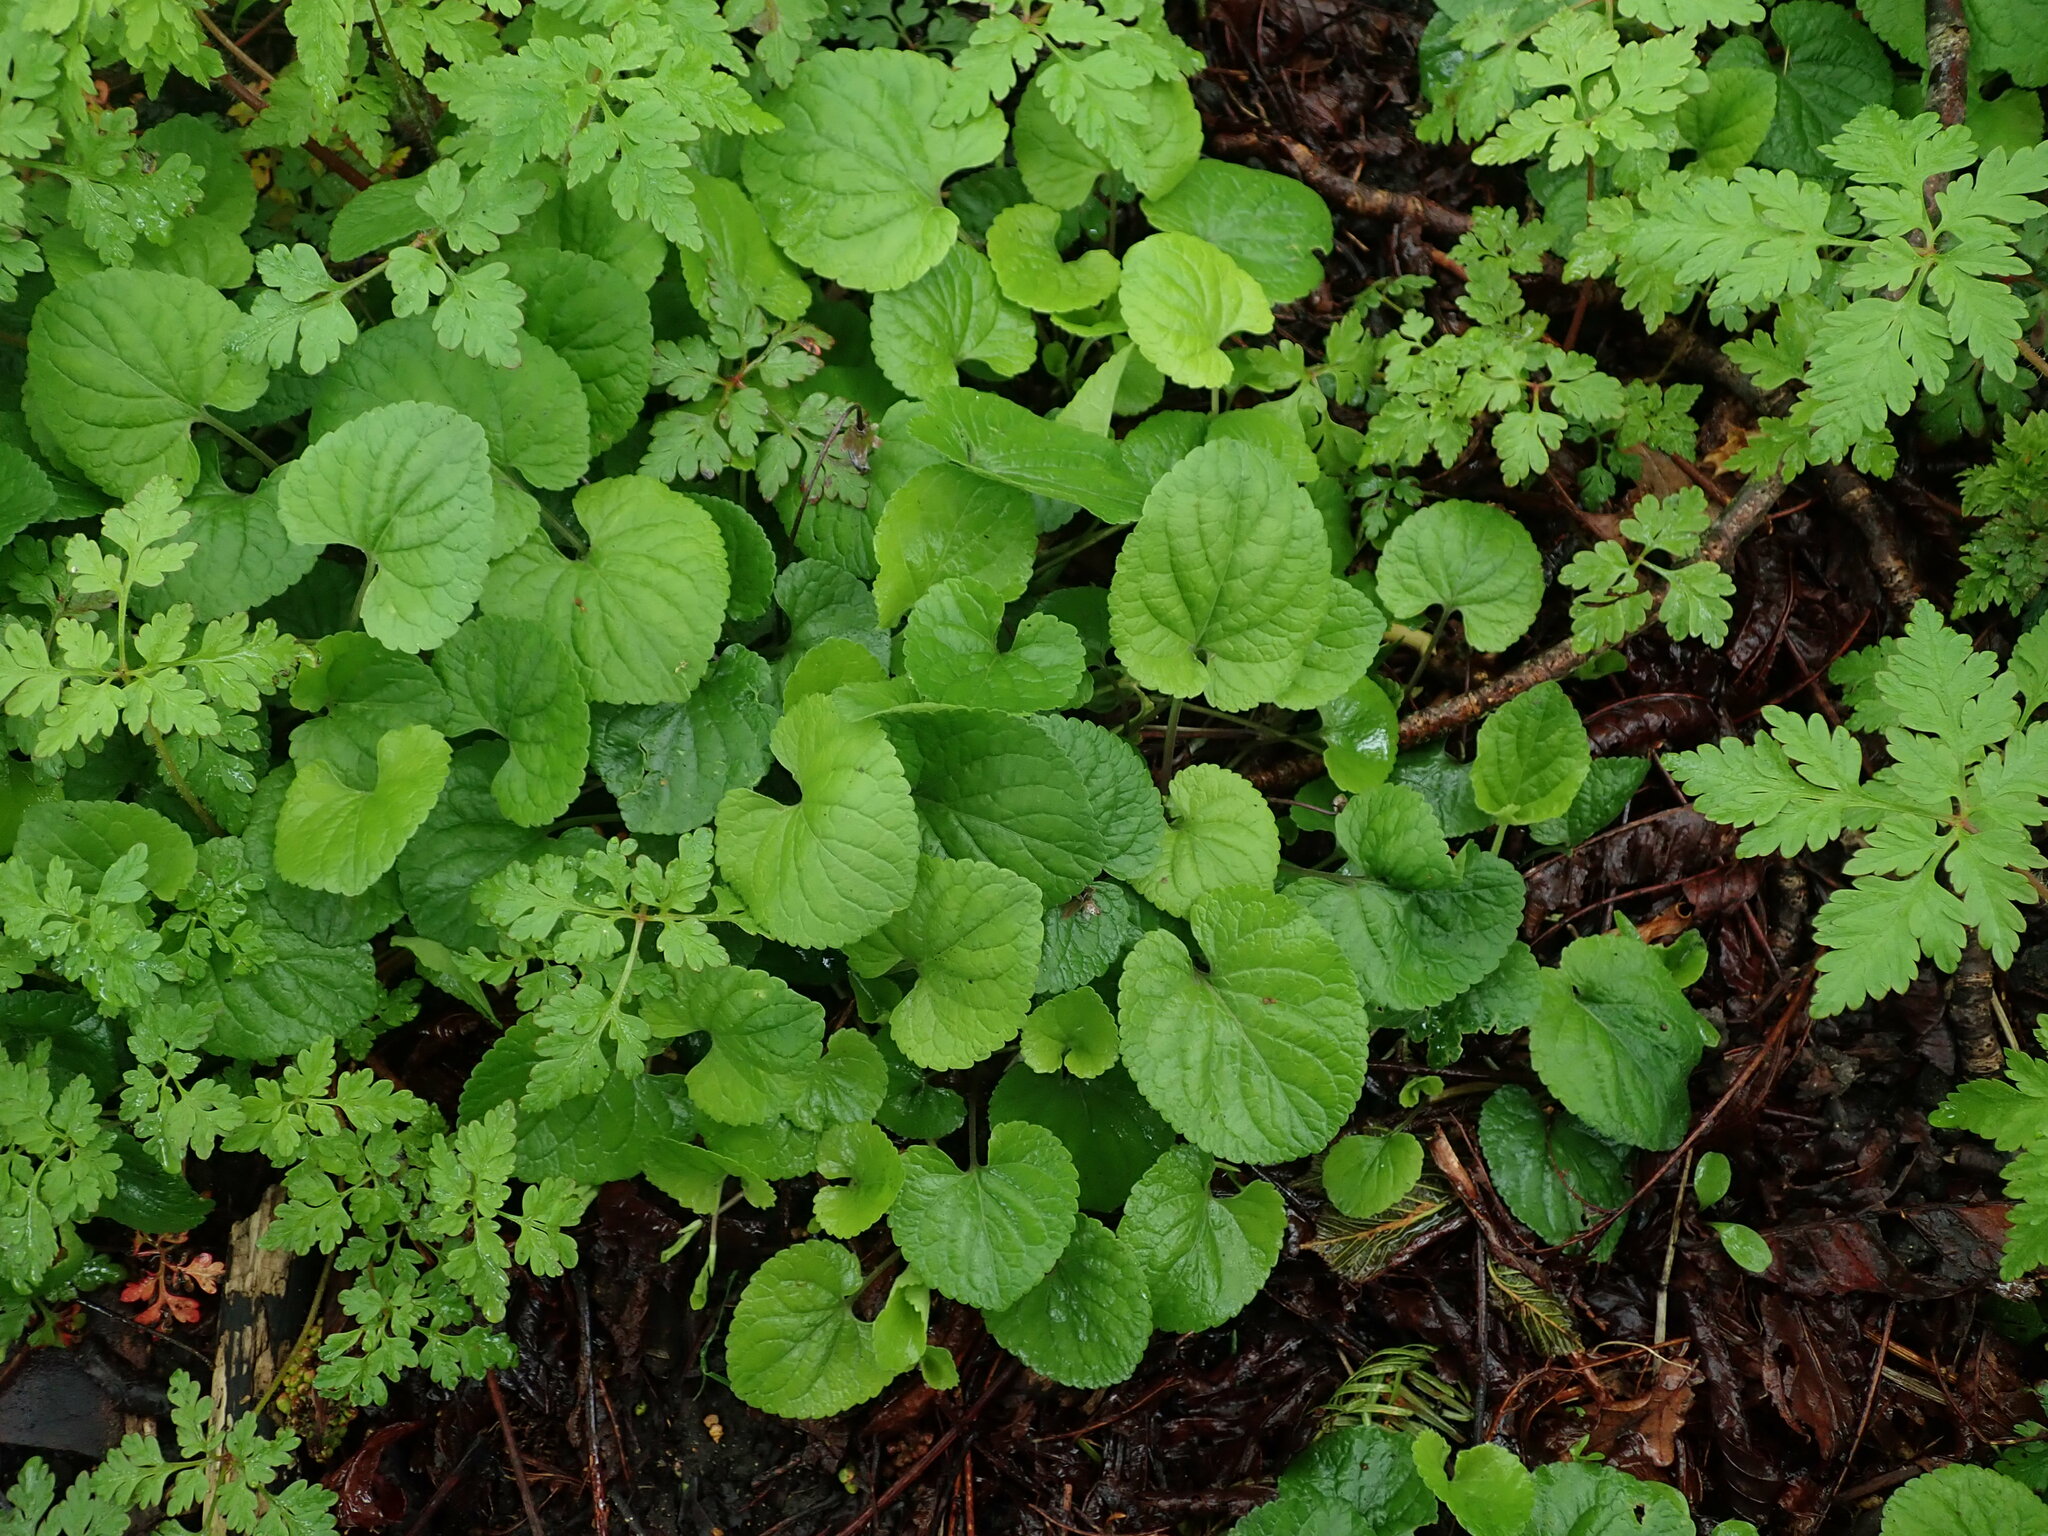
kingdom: Plantae
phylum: Tracheophyta
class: Magnoliopsida
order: Malpighiales
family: Violaceae
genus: Viola
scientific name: Viola odorata
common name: Sweet violet
